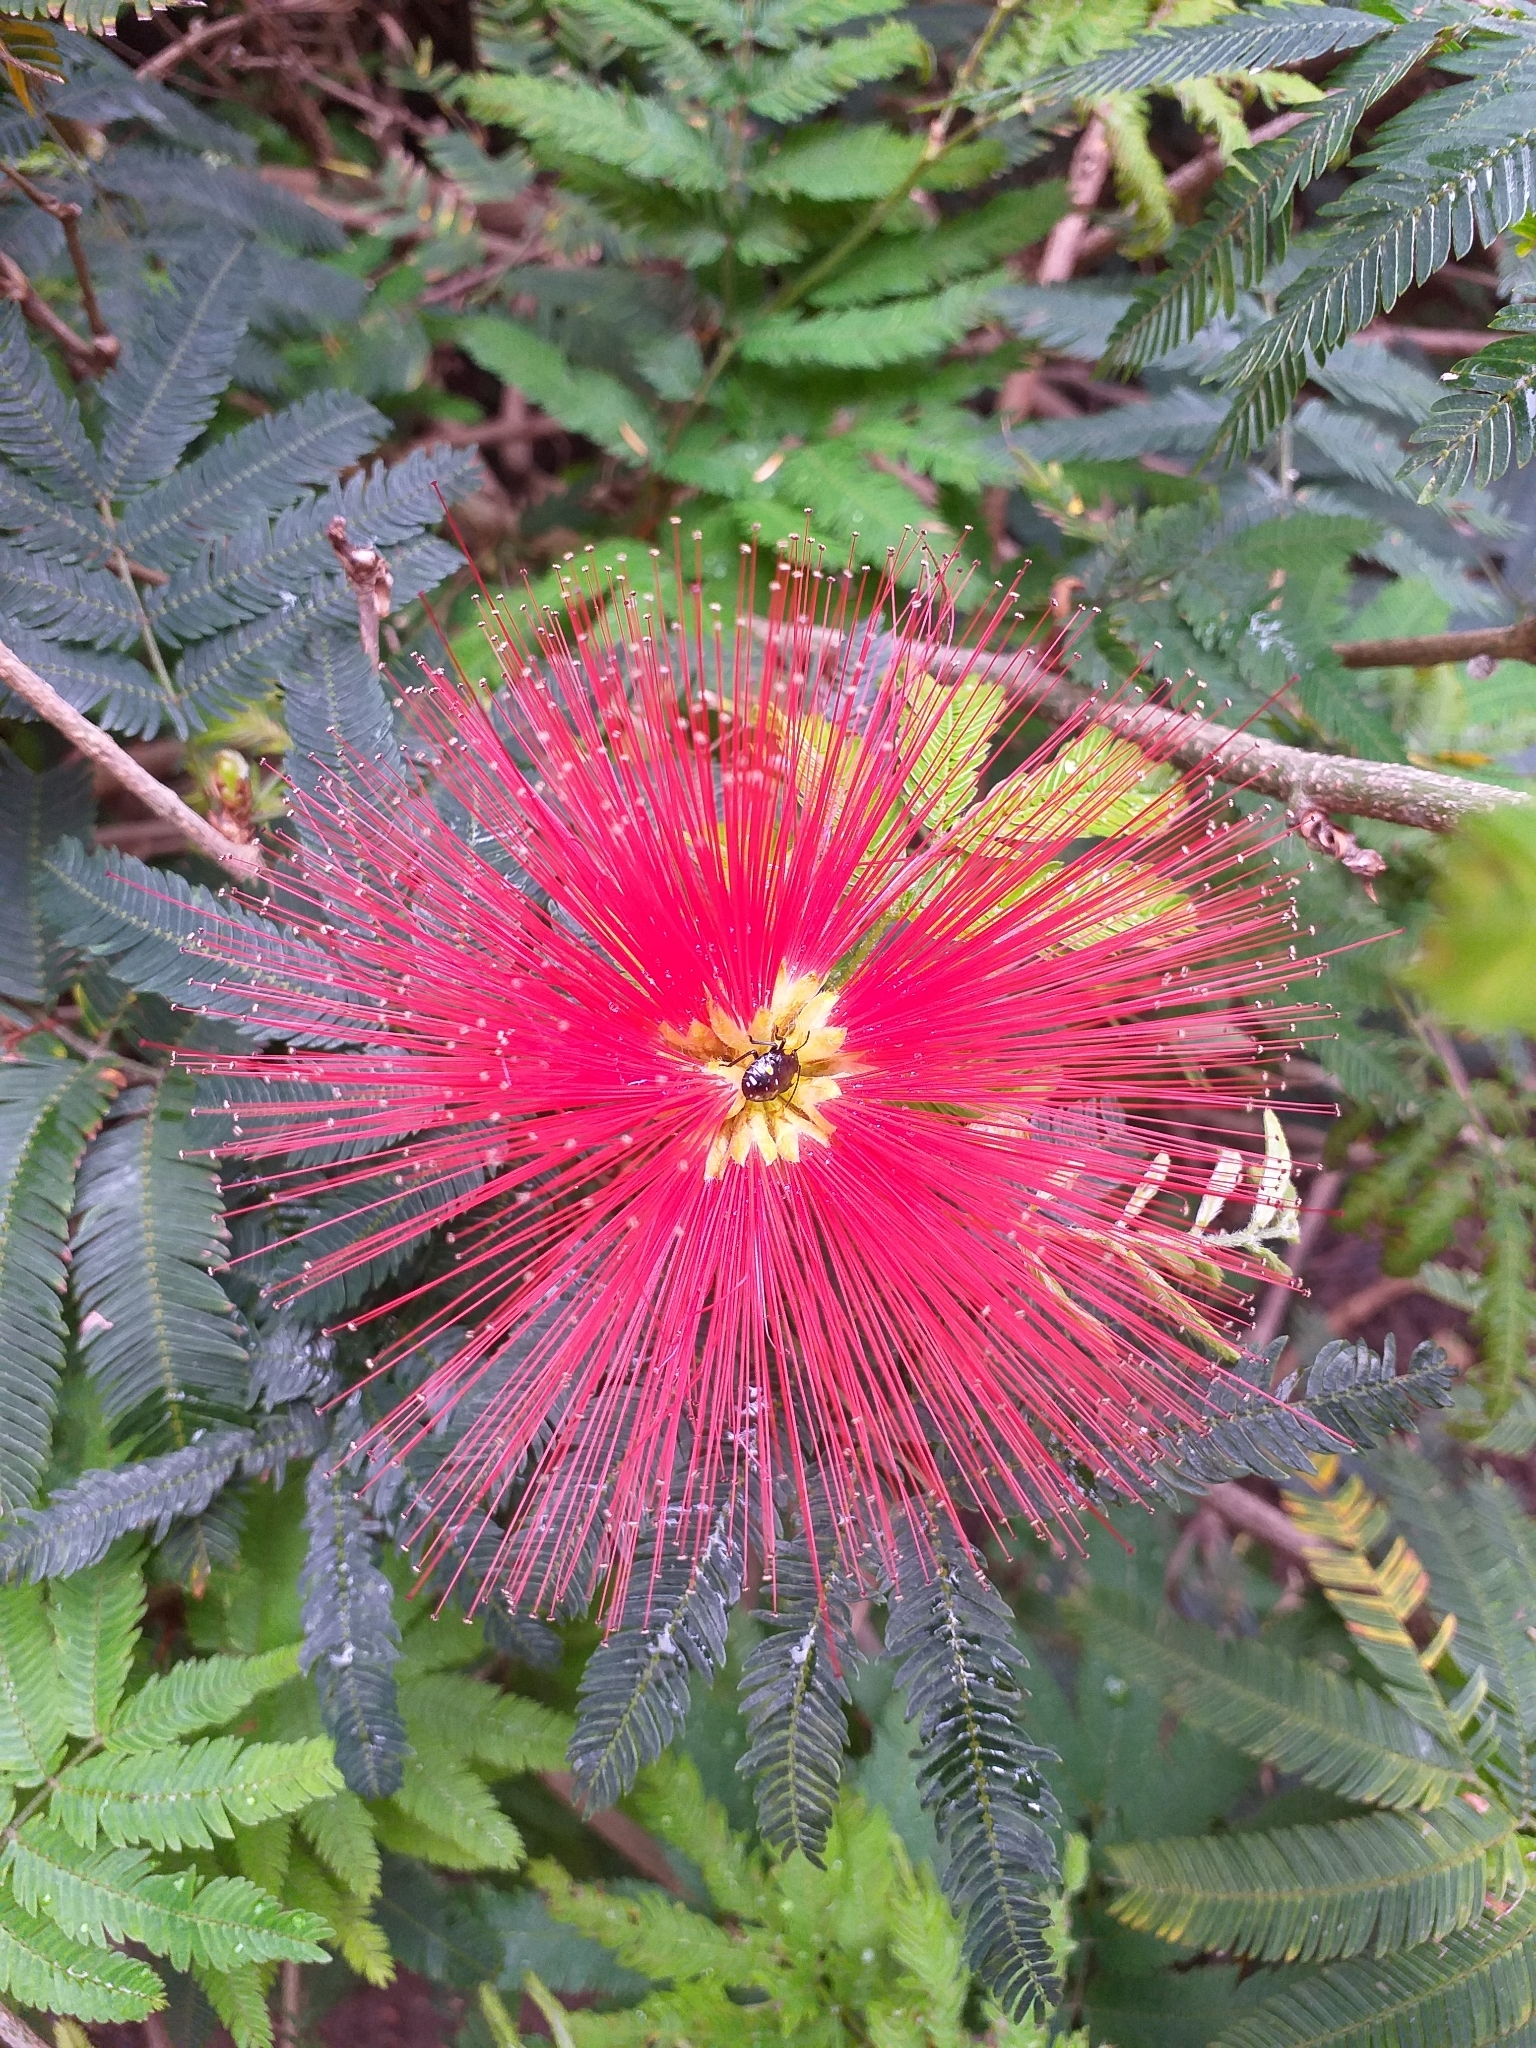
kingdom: Plantae
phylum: Tracheophyta
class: Magnoliopsida
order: Fabales
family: Fabaceae
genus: Calliandra
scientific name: Calliandra tweediei
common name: Mexican flamebush
